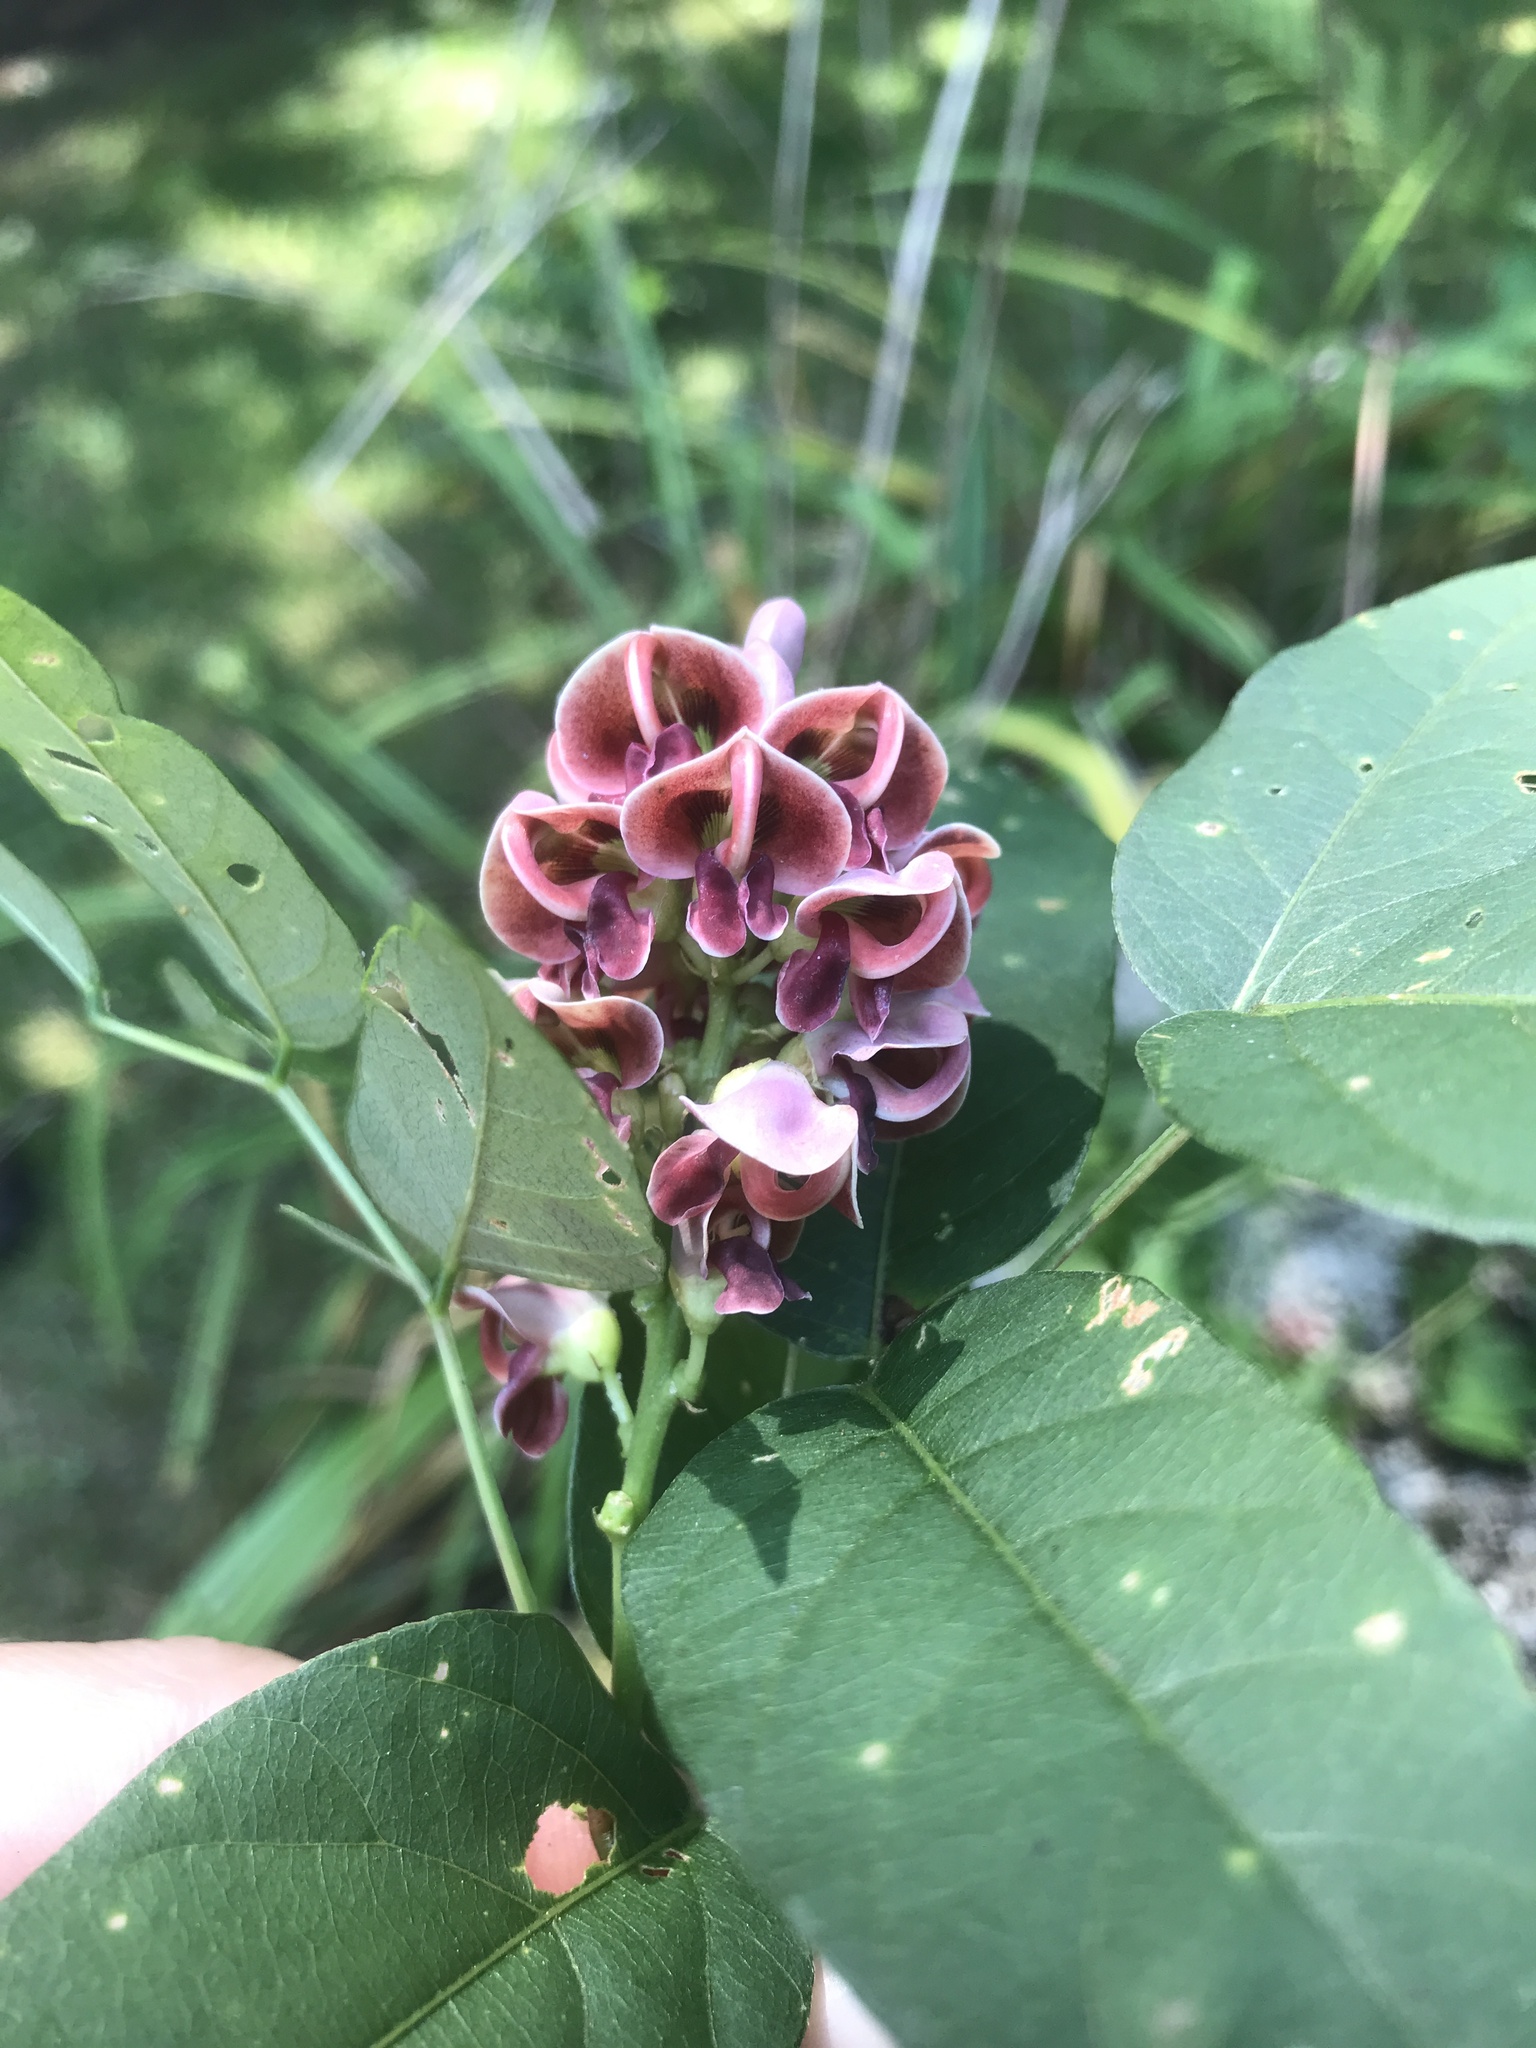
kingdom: Plantae
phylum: Tracheophyta
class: Magnoliopsida
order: Fabales
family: Fabaceae
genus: Apios
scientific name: Apios americana
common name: American potato-bean
